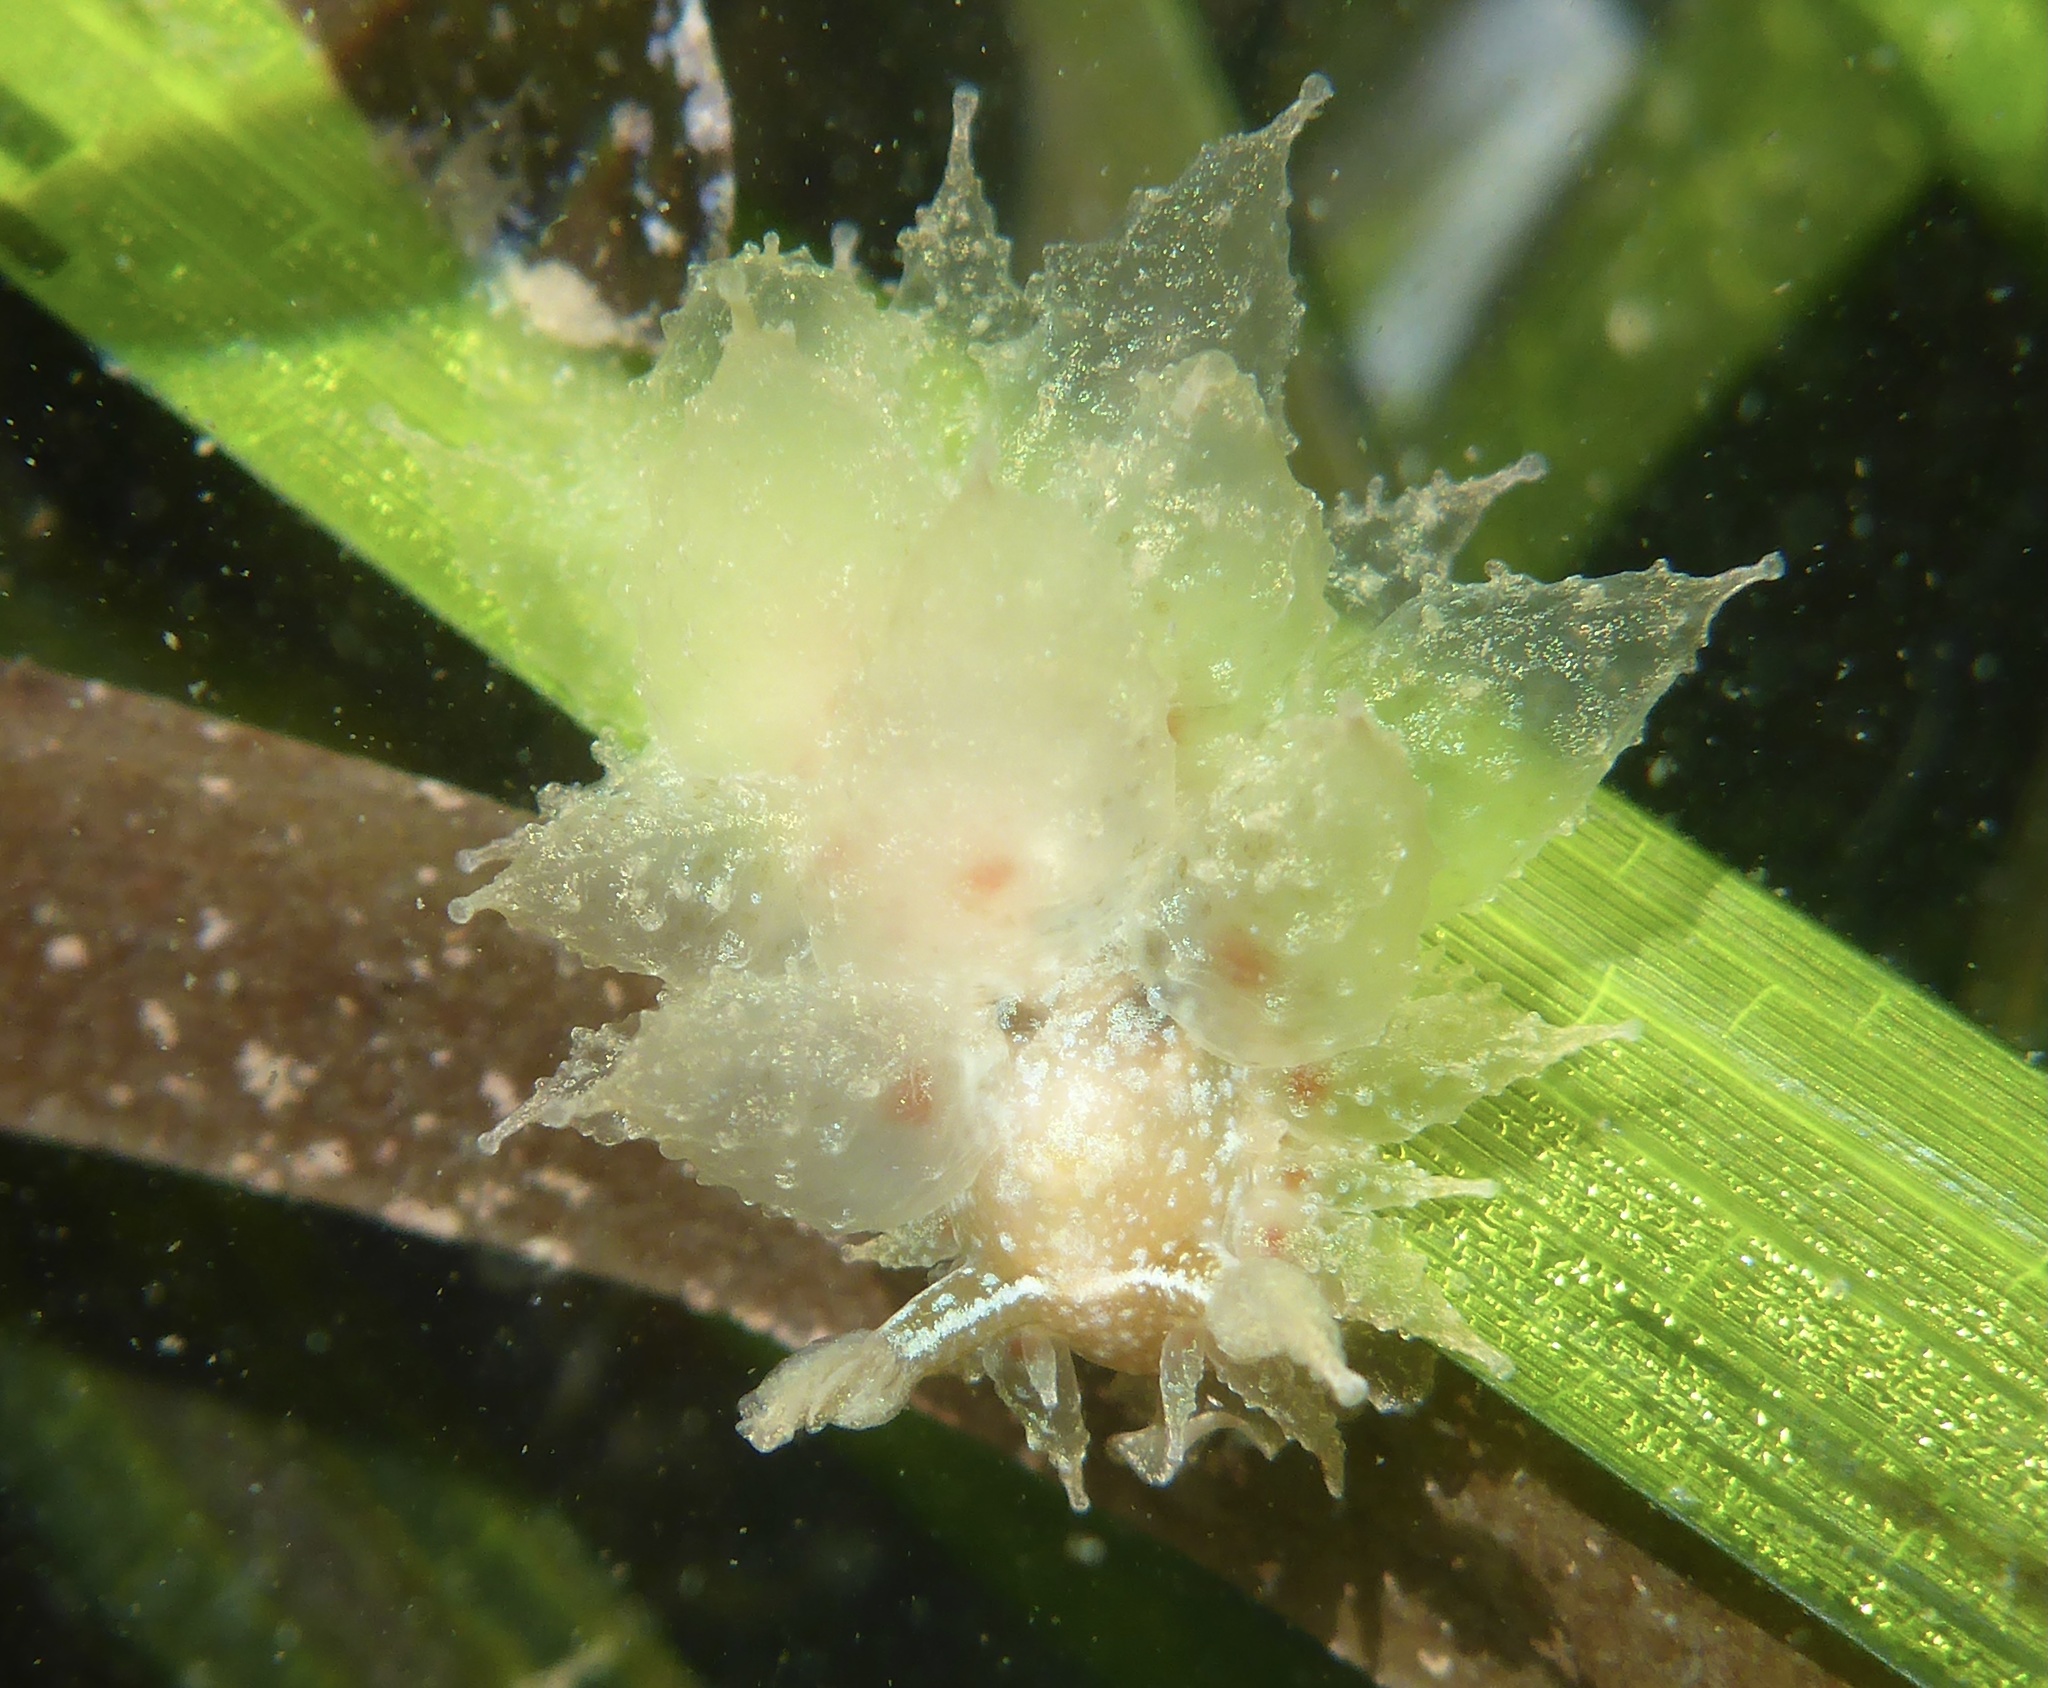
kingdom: Animalia
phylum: Mollusca
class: Gastropoda
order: Nudibranchia
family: Dironidae
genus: Dirona
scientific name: Dirona picta
